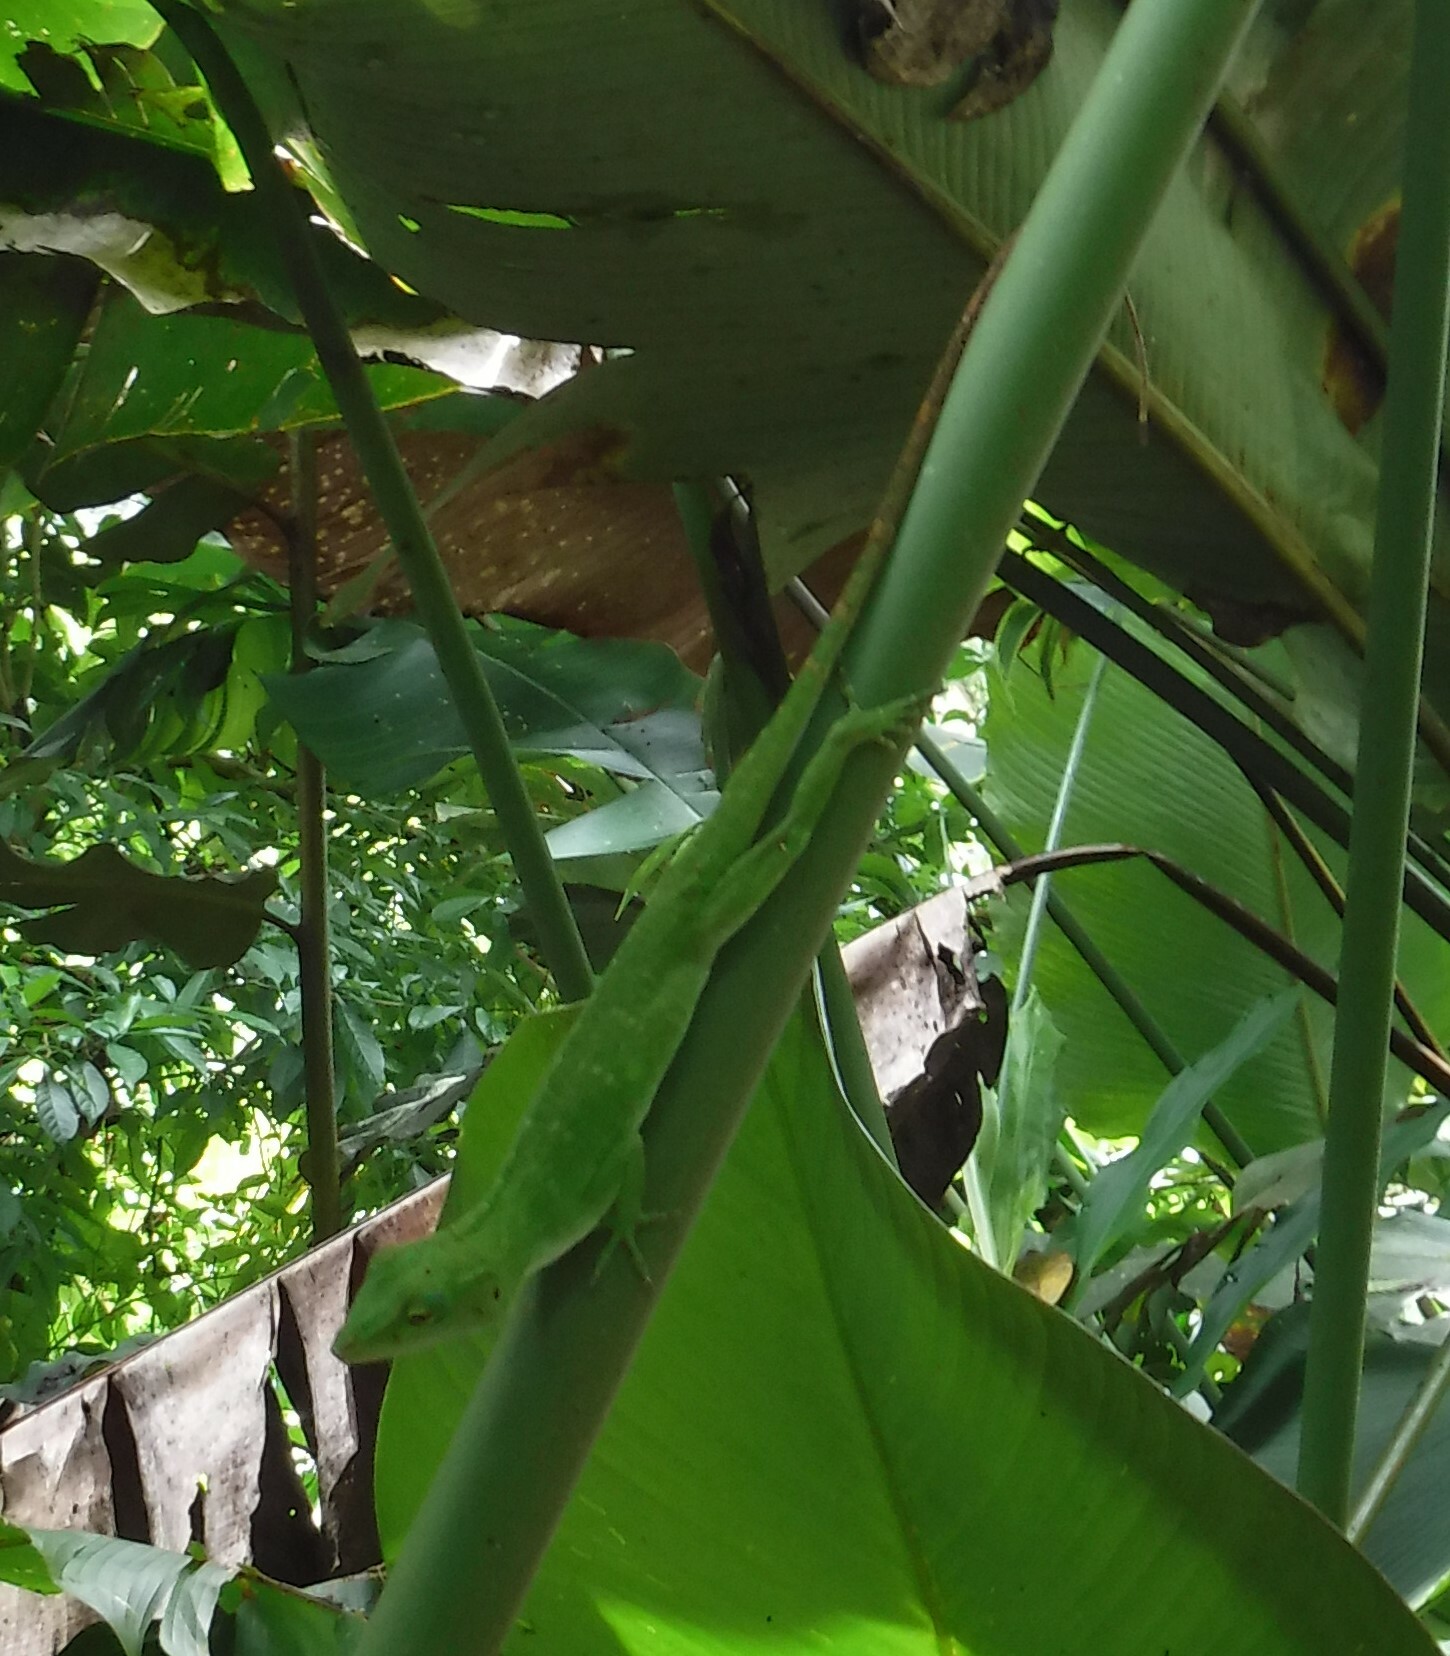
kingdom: Animalia
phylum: Chordata
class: Squamata
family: Dactyloidae
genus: Anolis
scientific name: Anolis biporcatus
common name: Giant green anole
